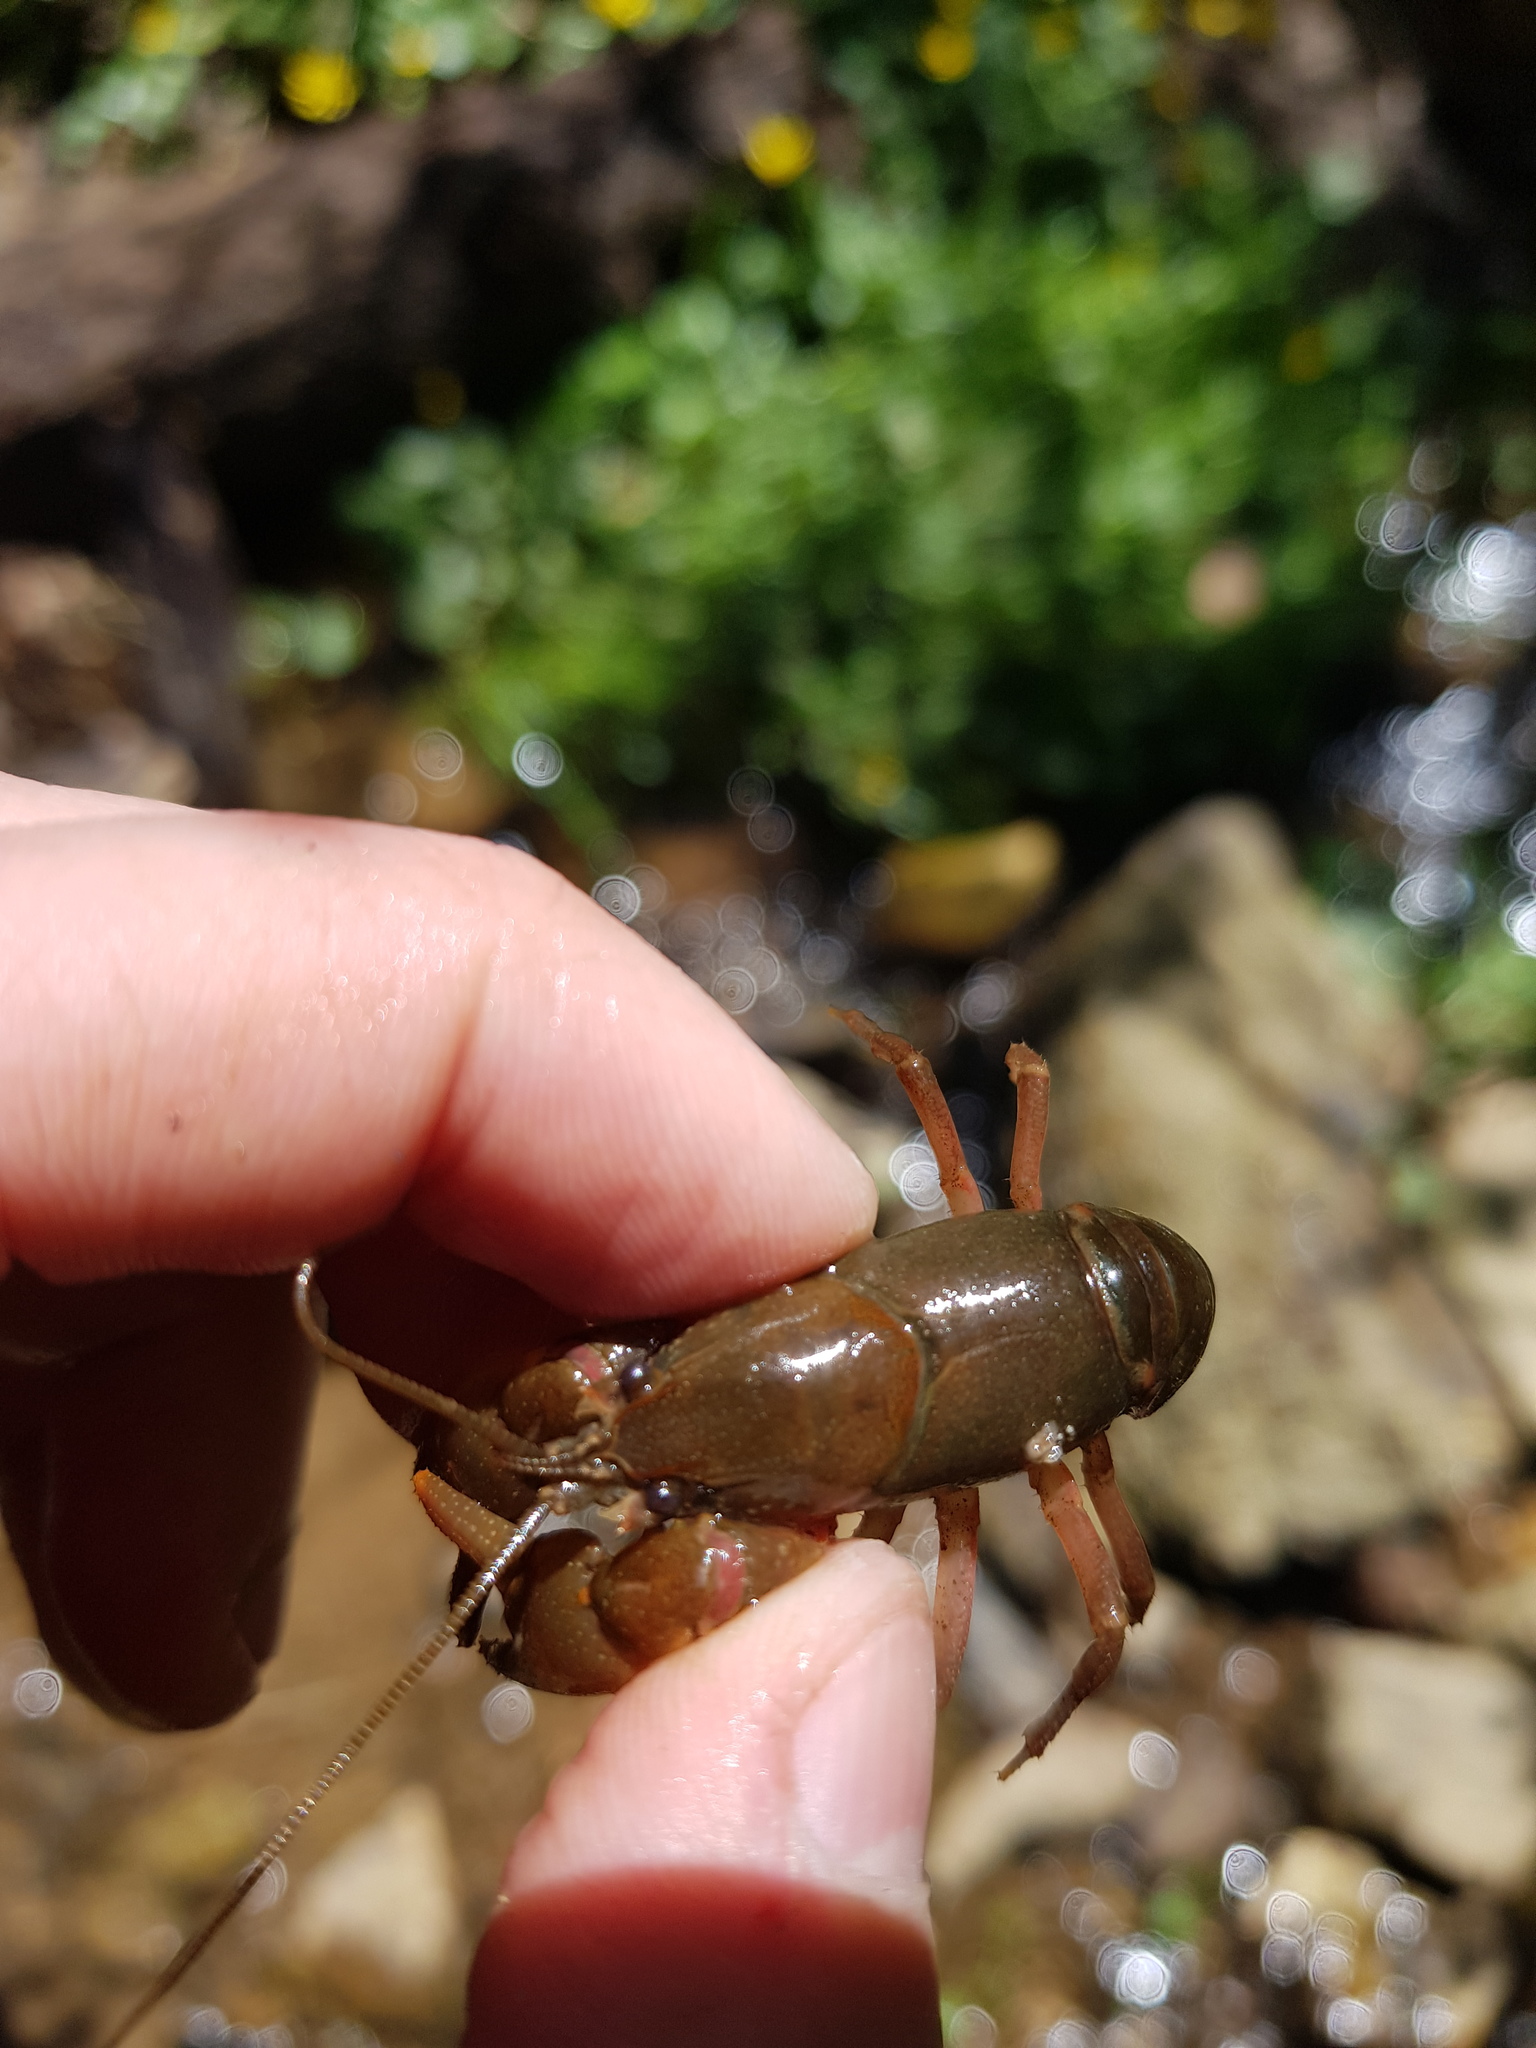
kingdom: Animalia
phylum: Arthropoda
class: Malacostraca
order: Decapoda
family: Cambaridae
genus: Cambarus
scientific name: Cambarus bartonii
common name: Appalachian brook crayfish
